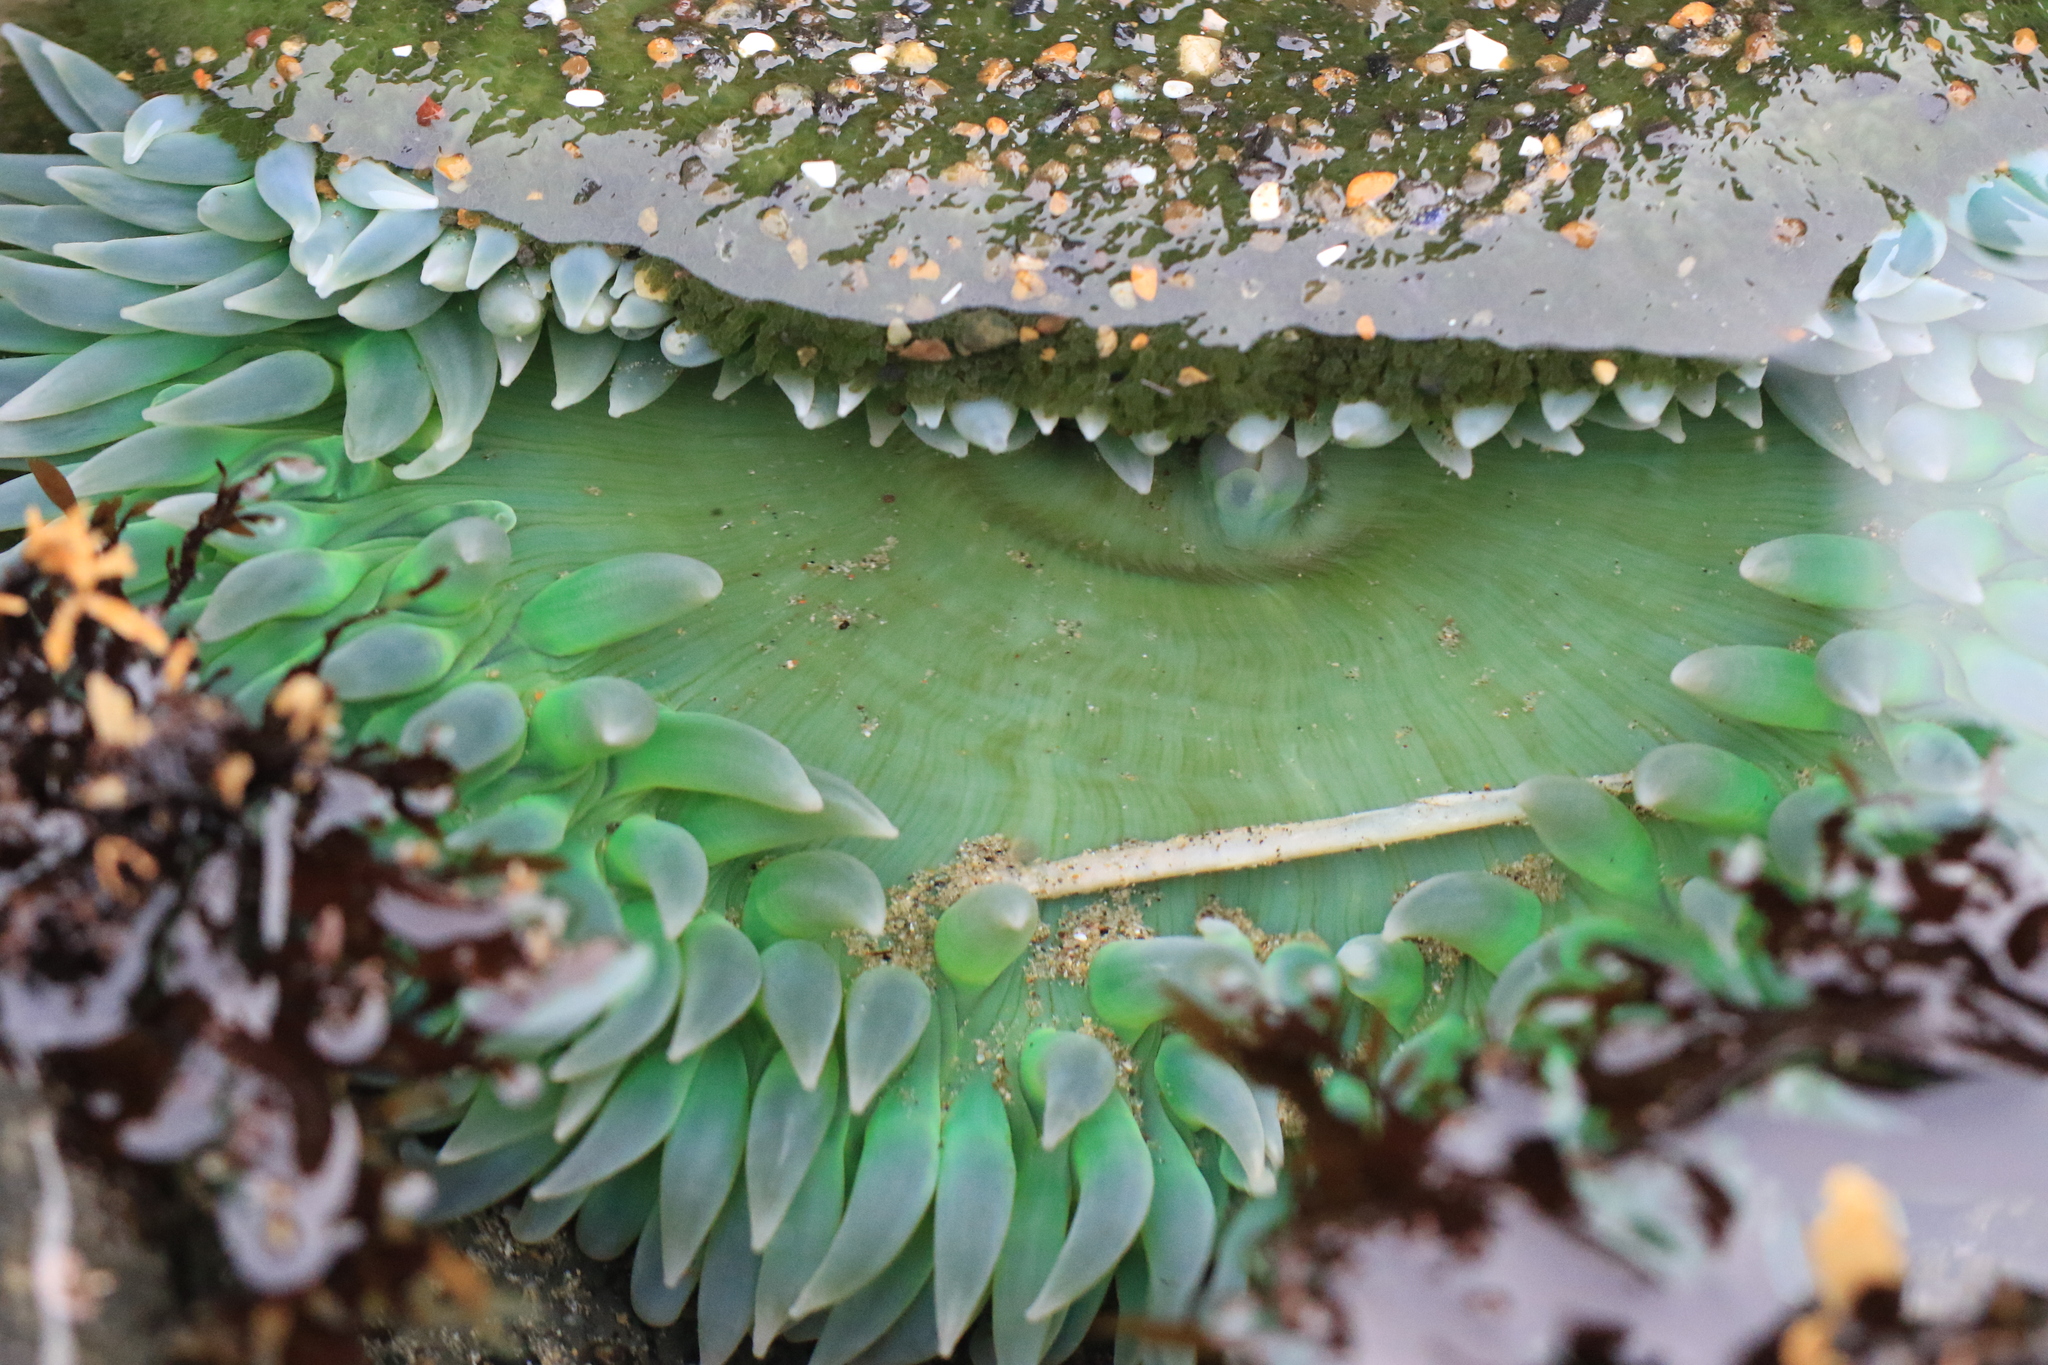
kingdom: Animalia
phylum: Cnidaria
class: Anthozoa
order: Actiniaria
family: Actiniidae
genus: Anthopleura
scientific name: Anthopleura xanthogrammica
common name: Giant green anemone
